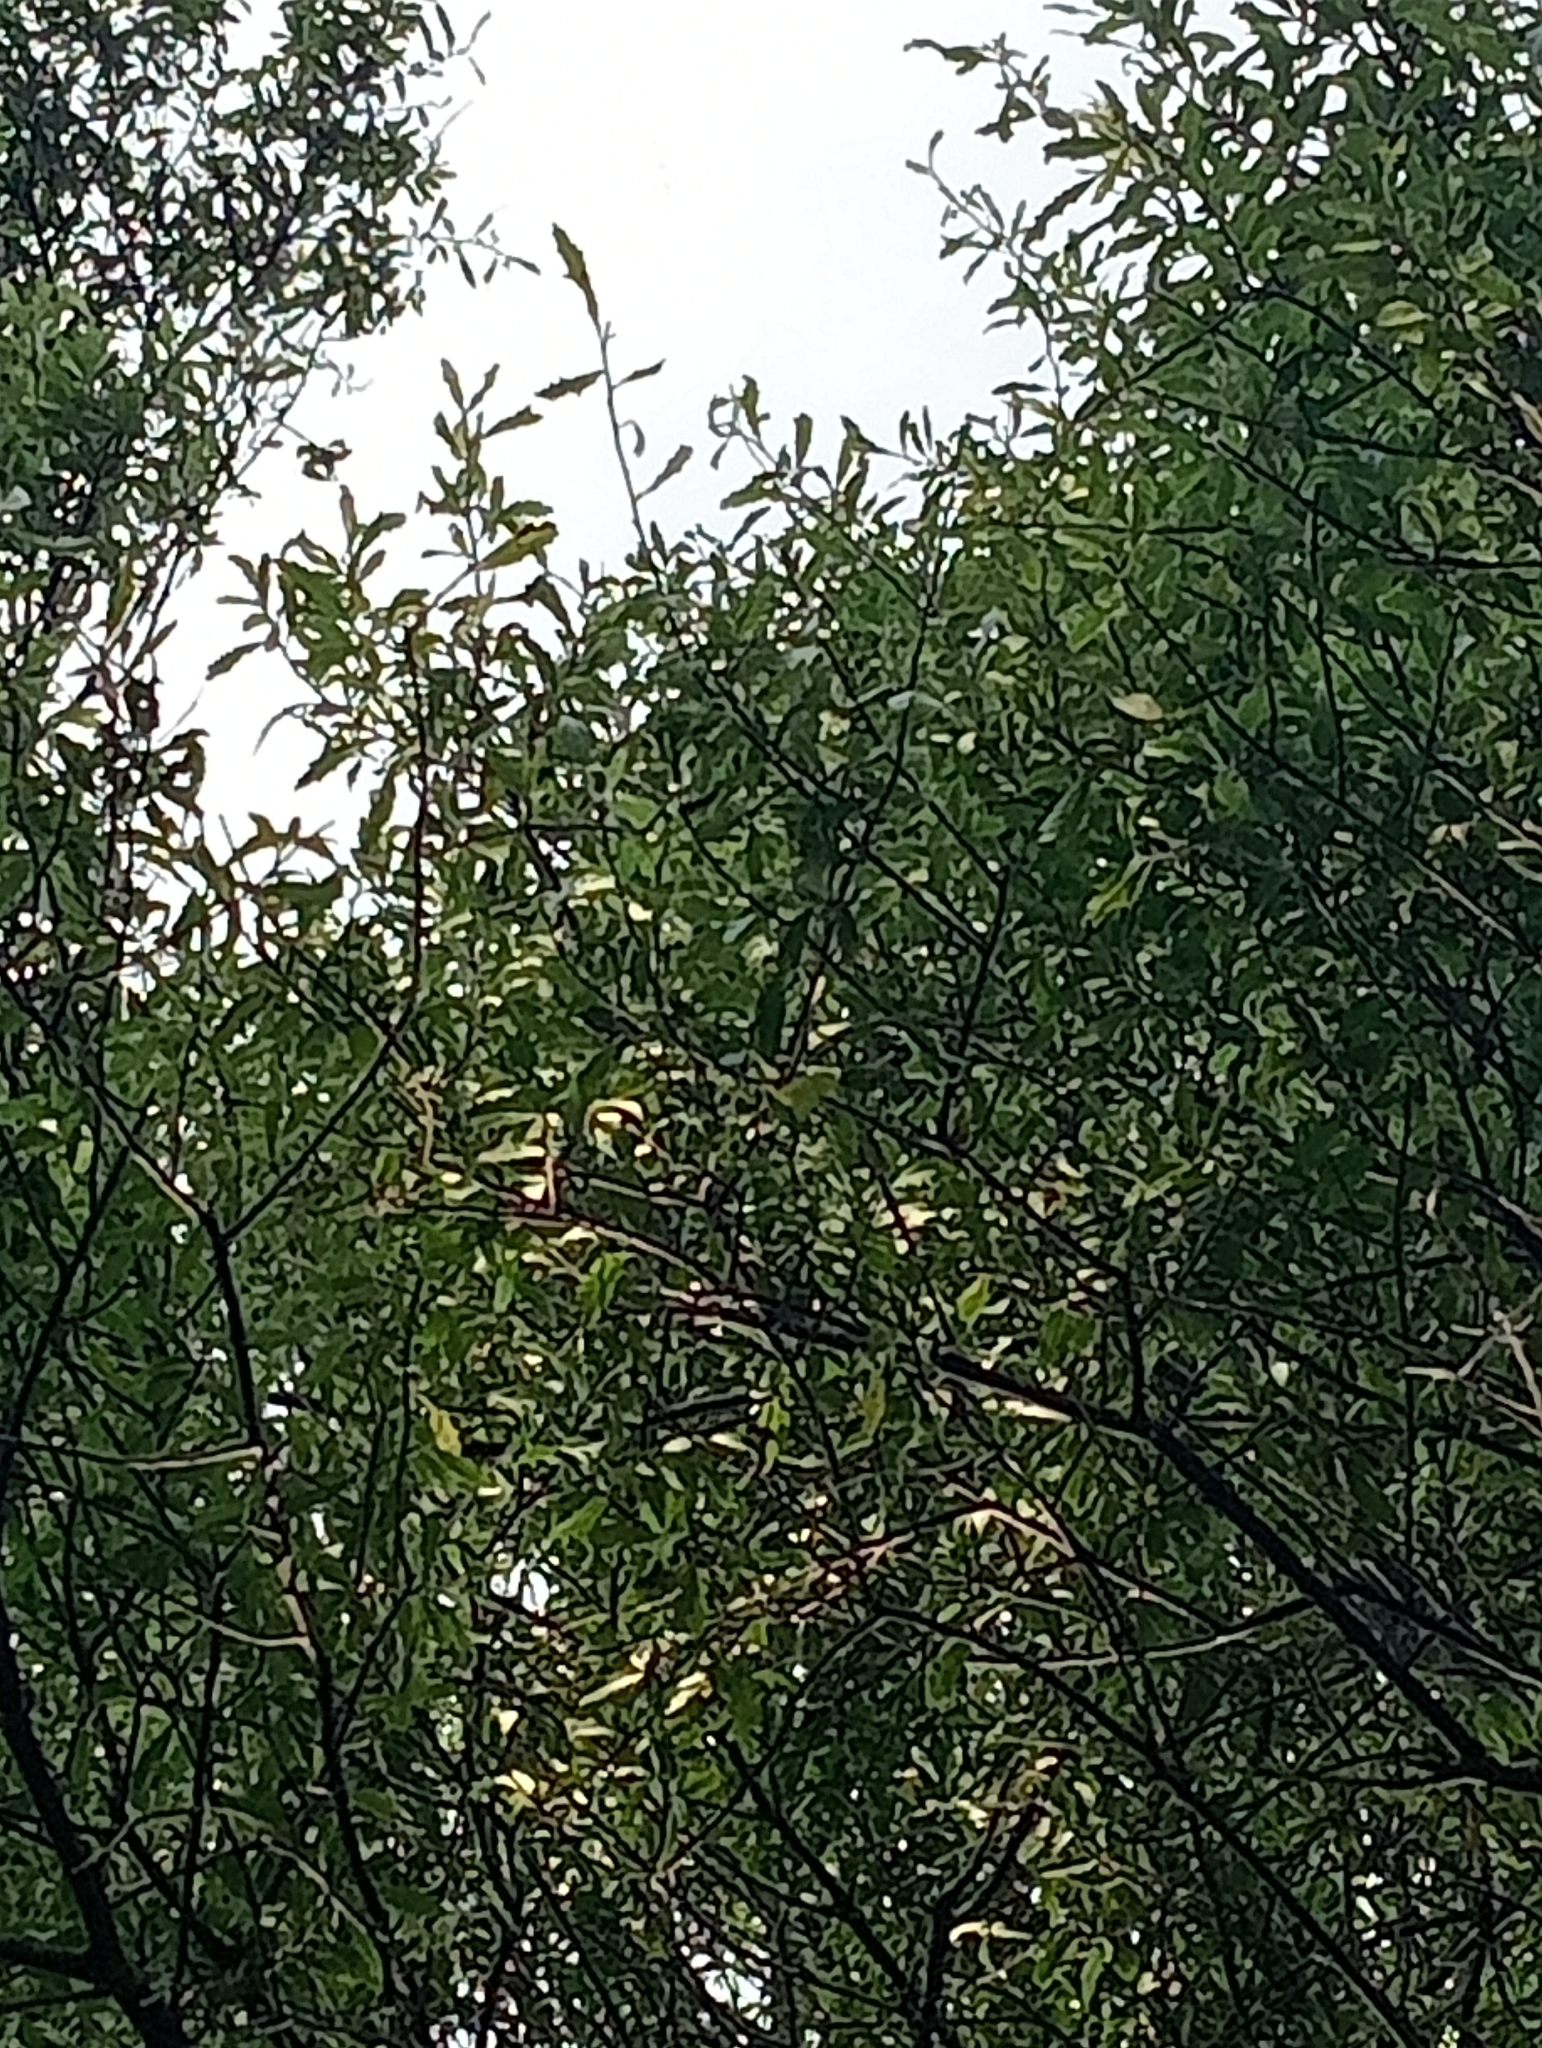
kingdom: Plantae
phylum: Tracheophyta
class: Magnoliopsida
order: Malvales
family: Malvaceae
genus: Hoheria
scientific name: Hoheria angustifolia
